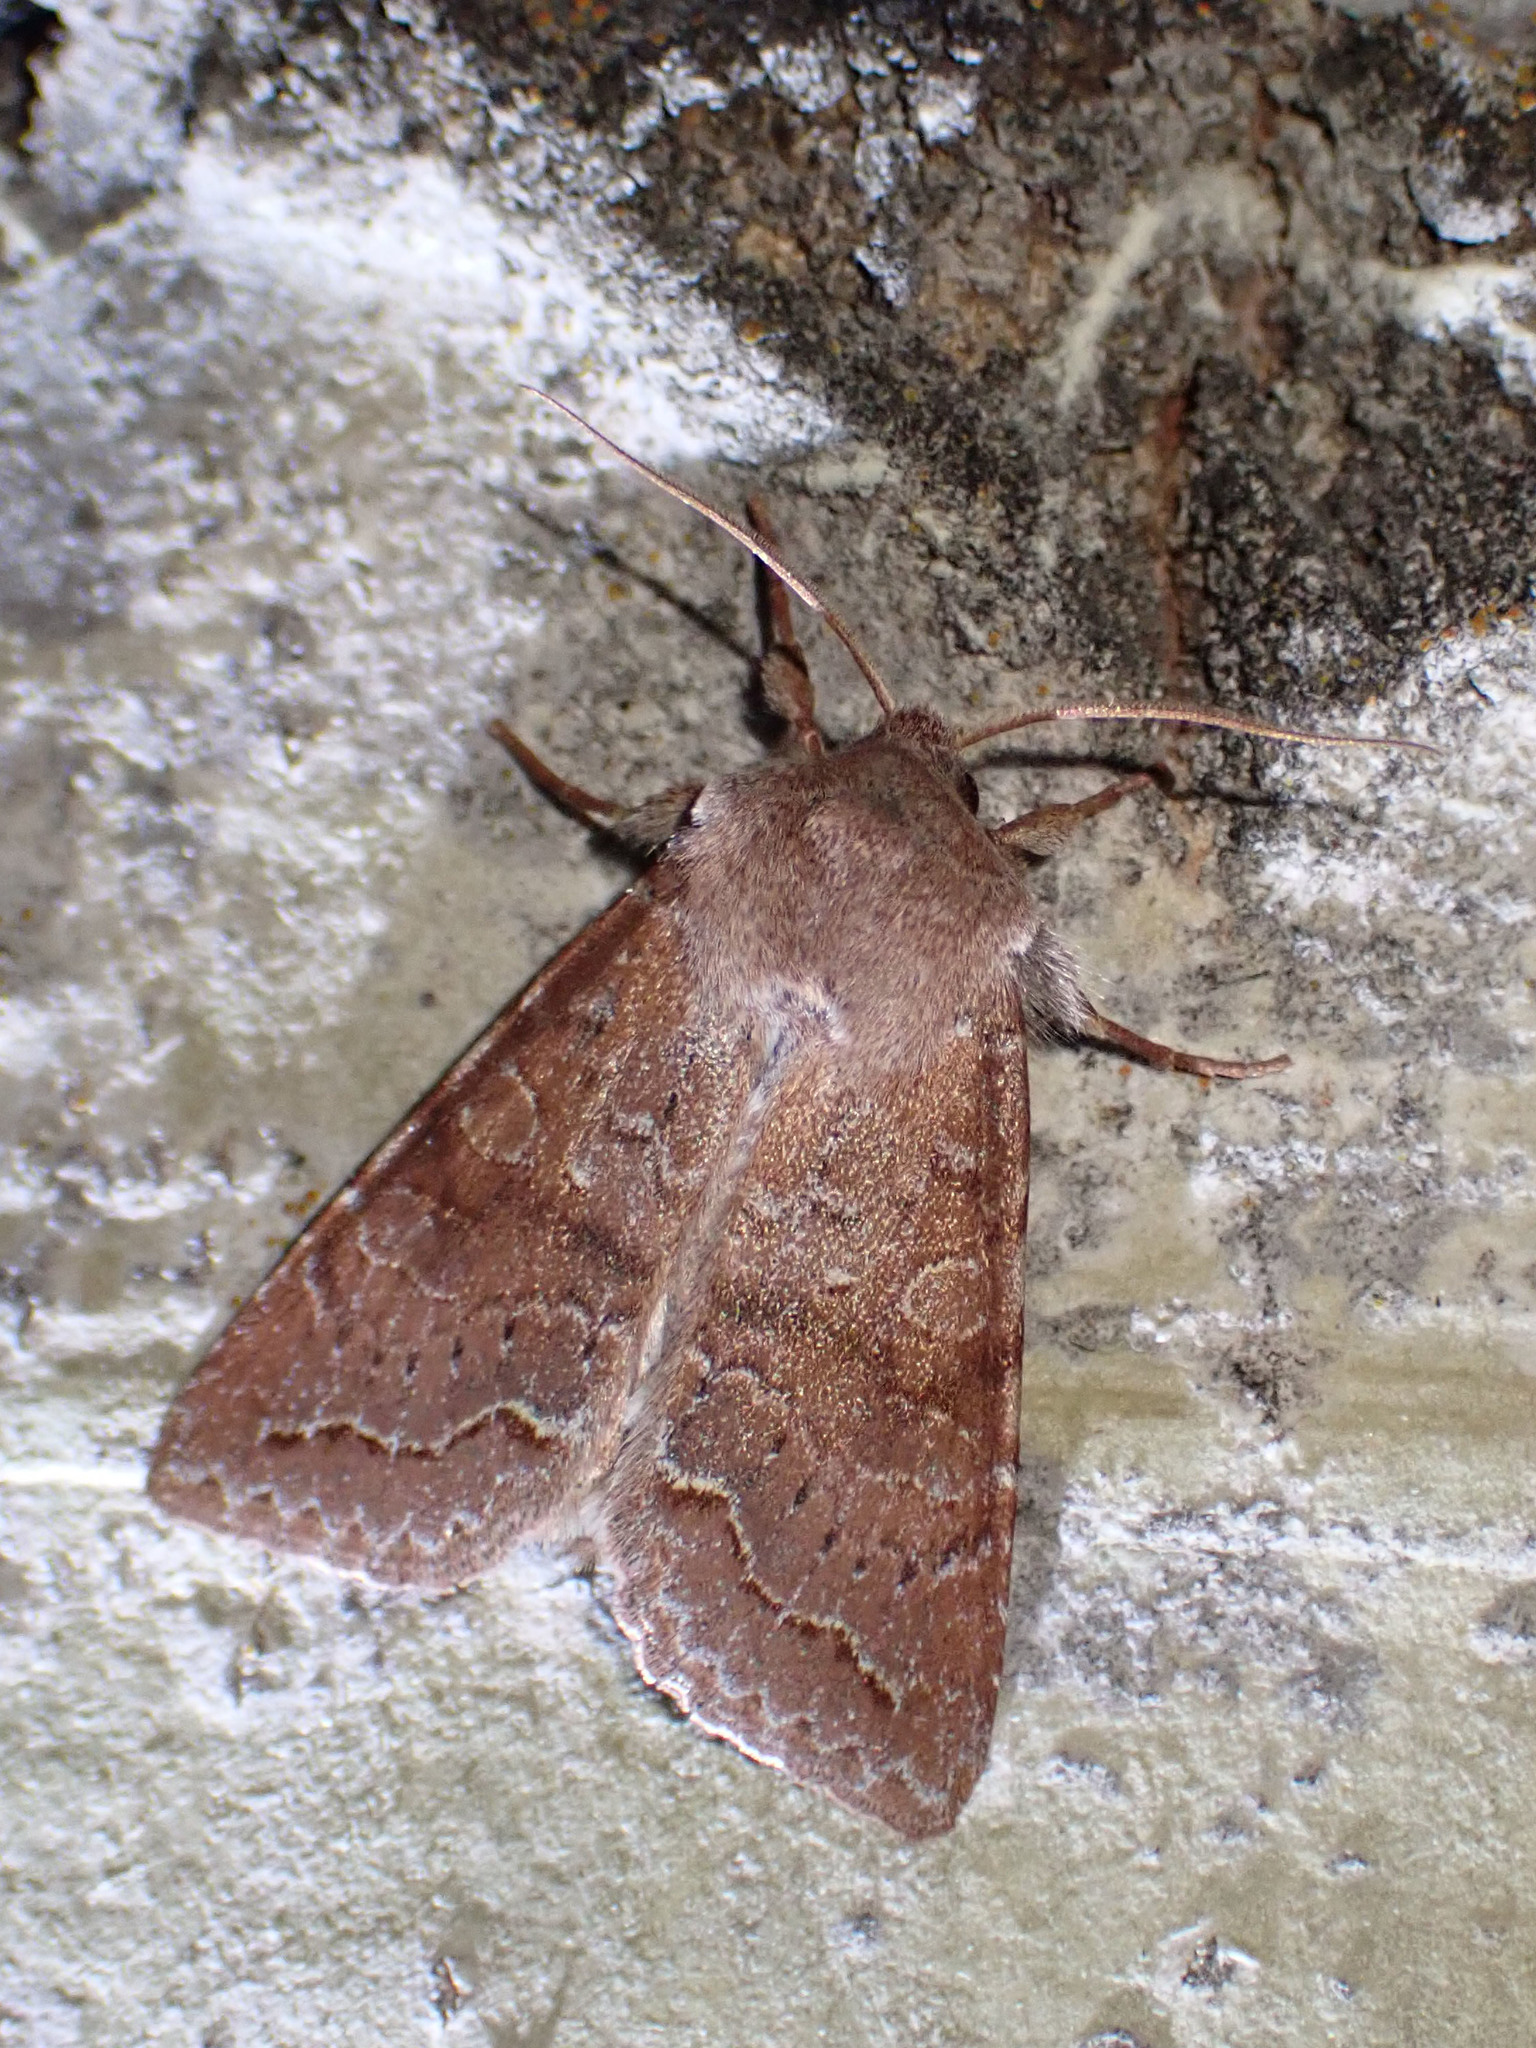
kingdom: Animalia
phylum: Arthropoda
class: Insecta
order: Lepidoptera
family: Noctuidae
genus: Orthosia
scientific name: Orthosia revicta
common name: Rusty whitesided caterpillar
